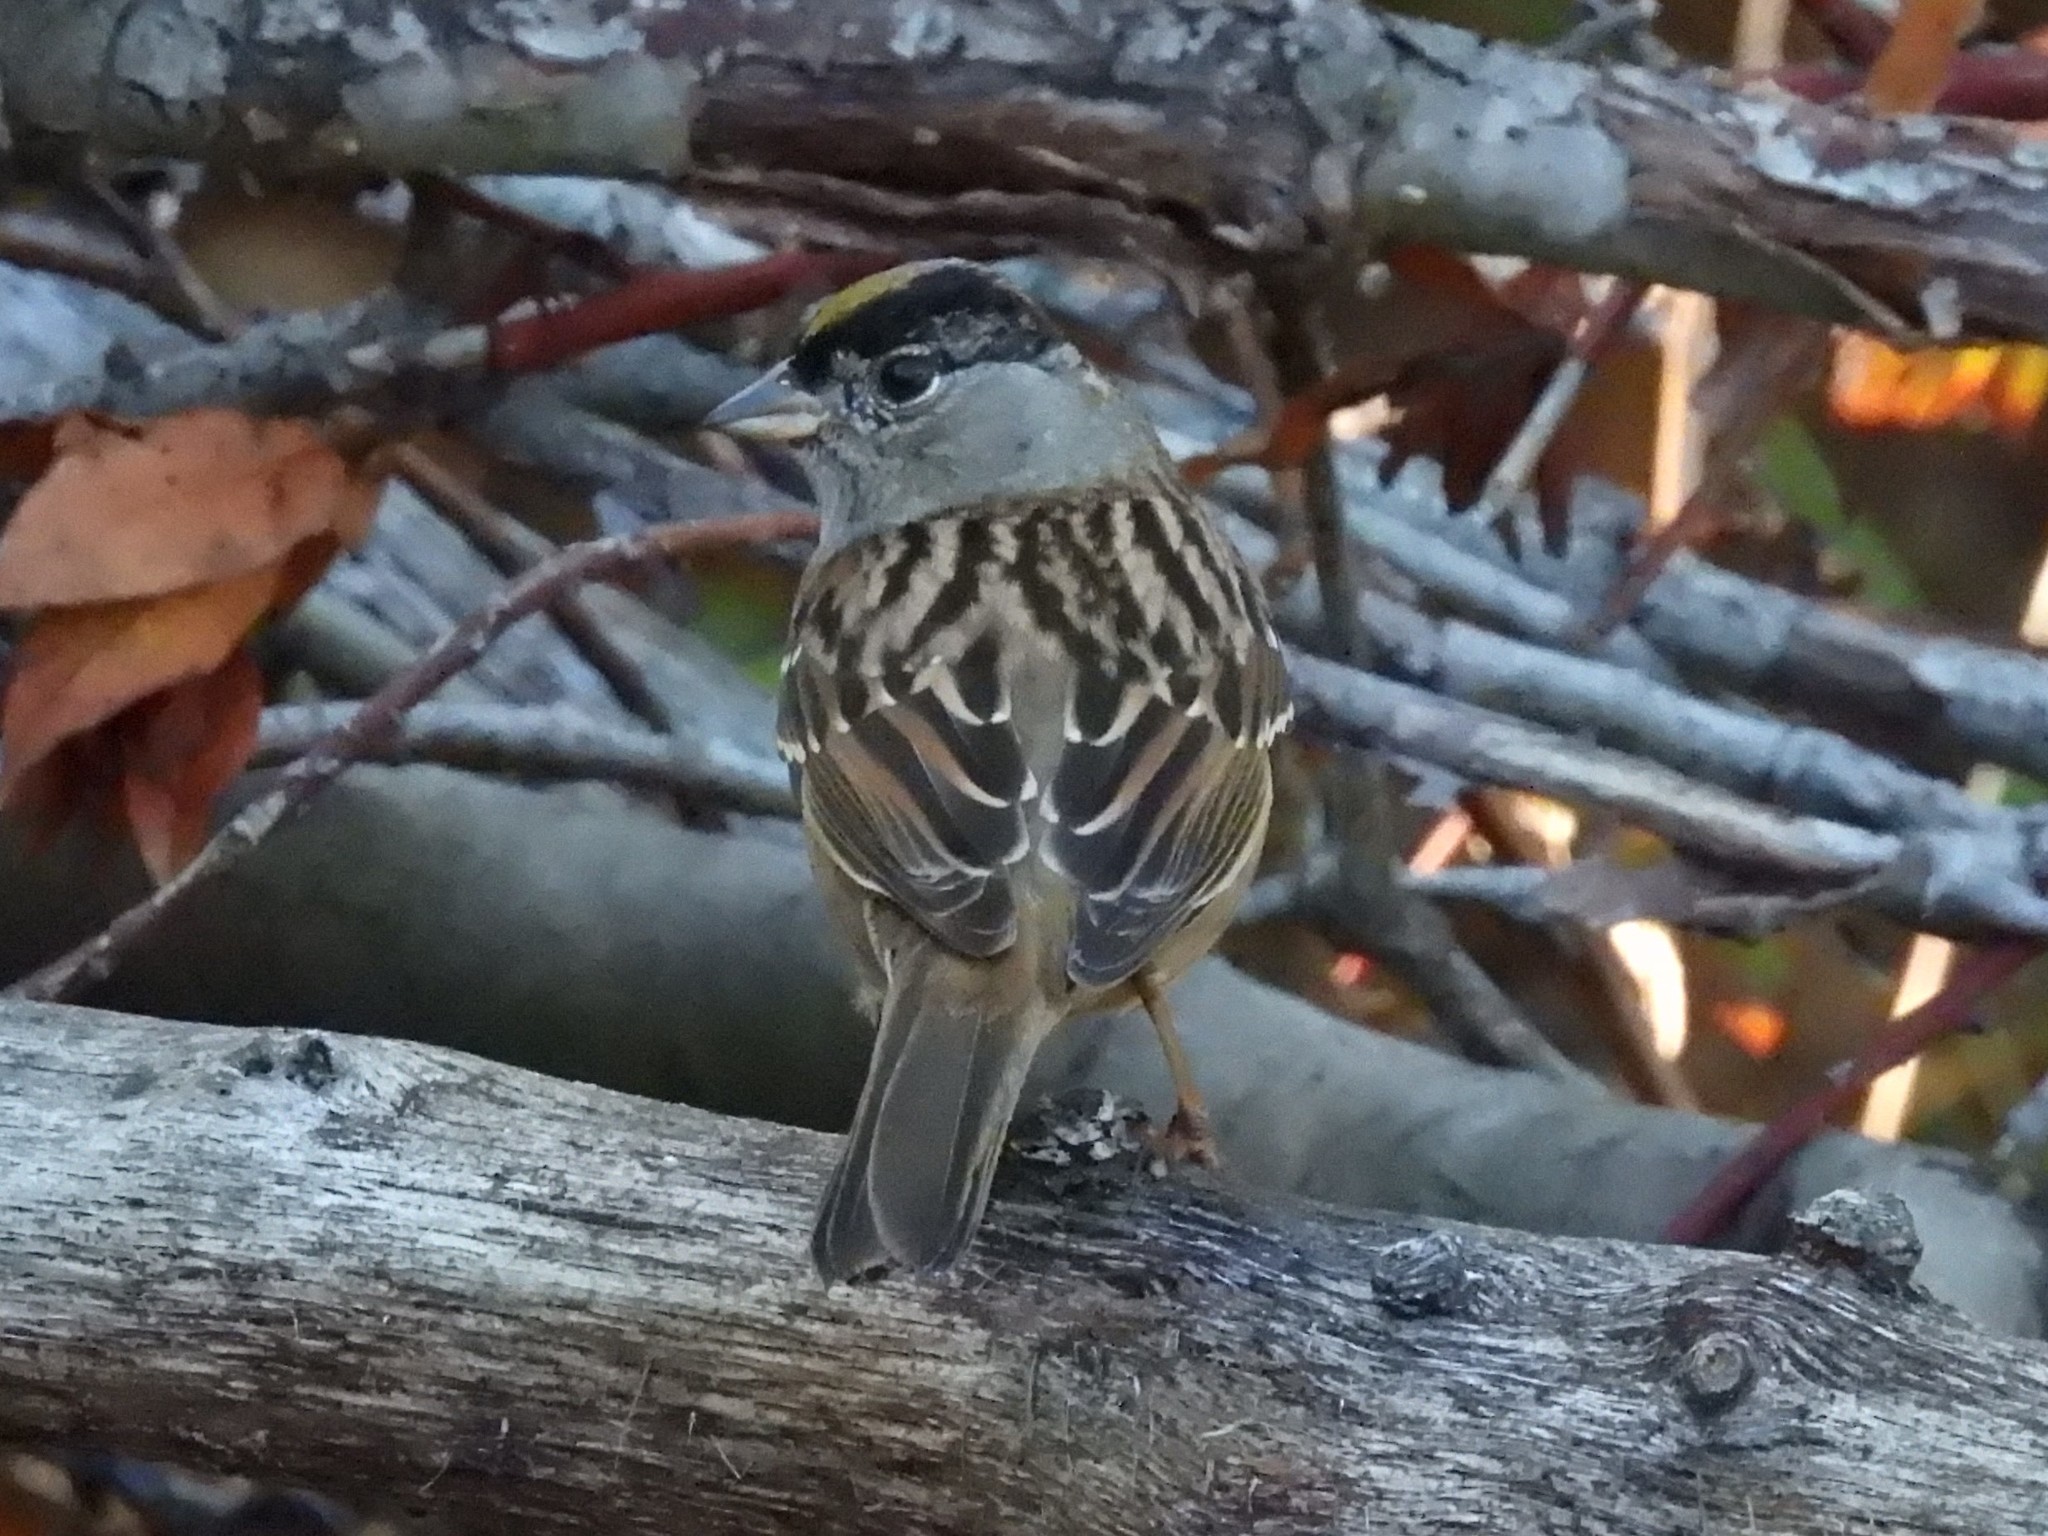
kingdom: Animalia
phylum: Chordata
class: Aves
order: Passeriformes
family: Passerellidae
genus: Zonotrichia
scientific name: Zonotrichia atricapilla
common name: Golden-crowned sparrow
